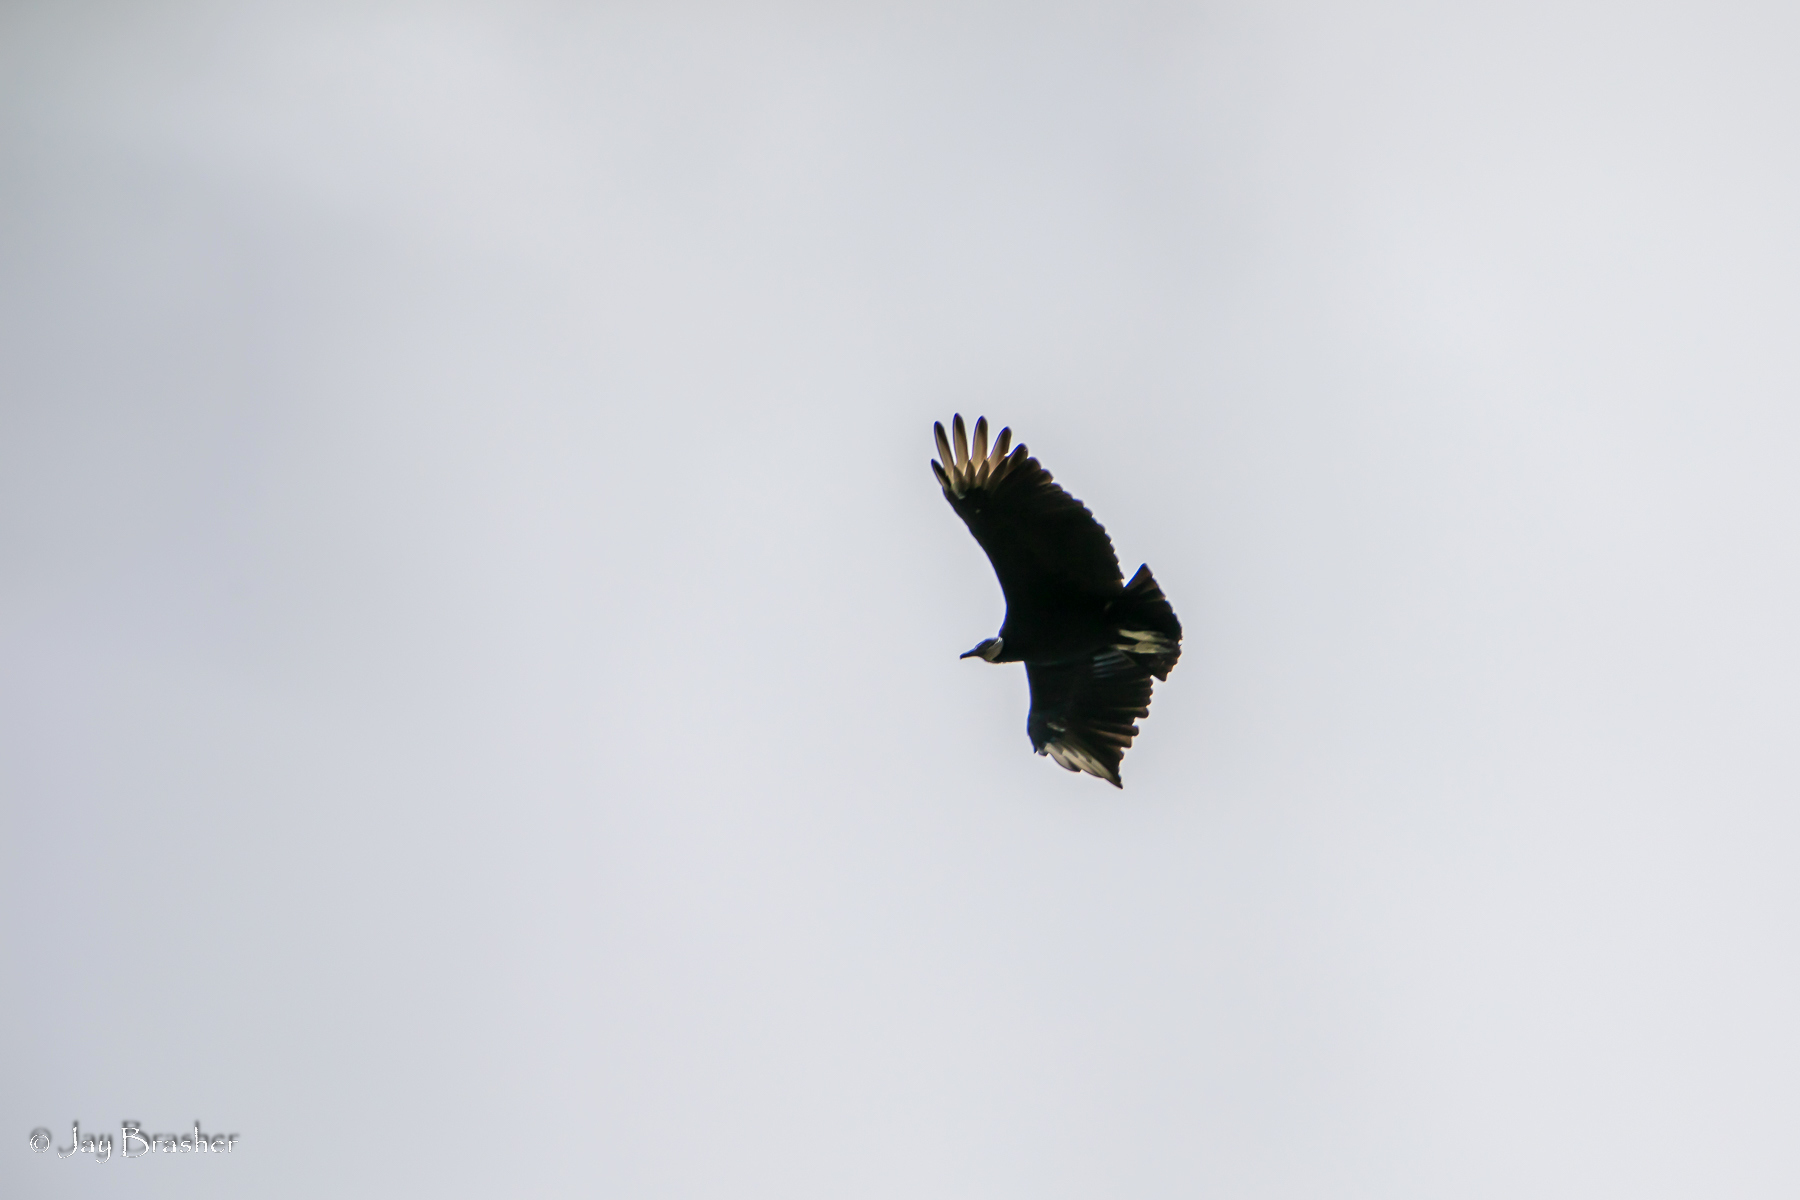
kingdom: Animalia
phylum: Chordata
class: Aves
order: Accipitriformes
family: Cathartidae
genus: Coragyps
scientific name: Coragyps atratus
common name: Black vulture
